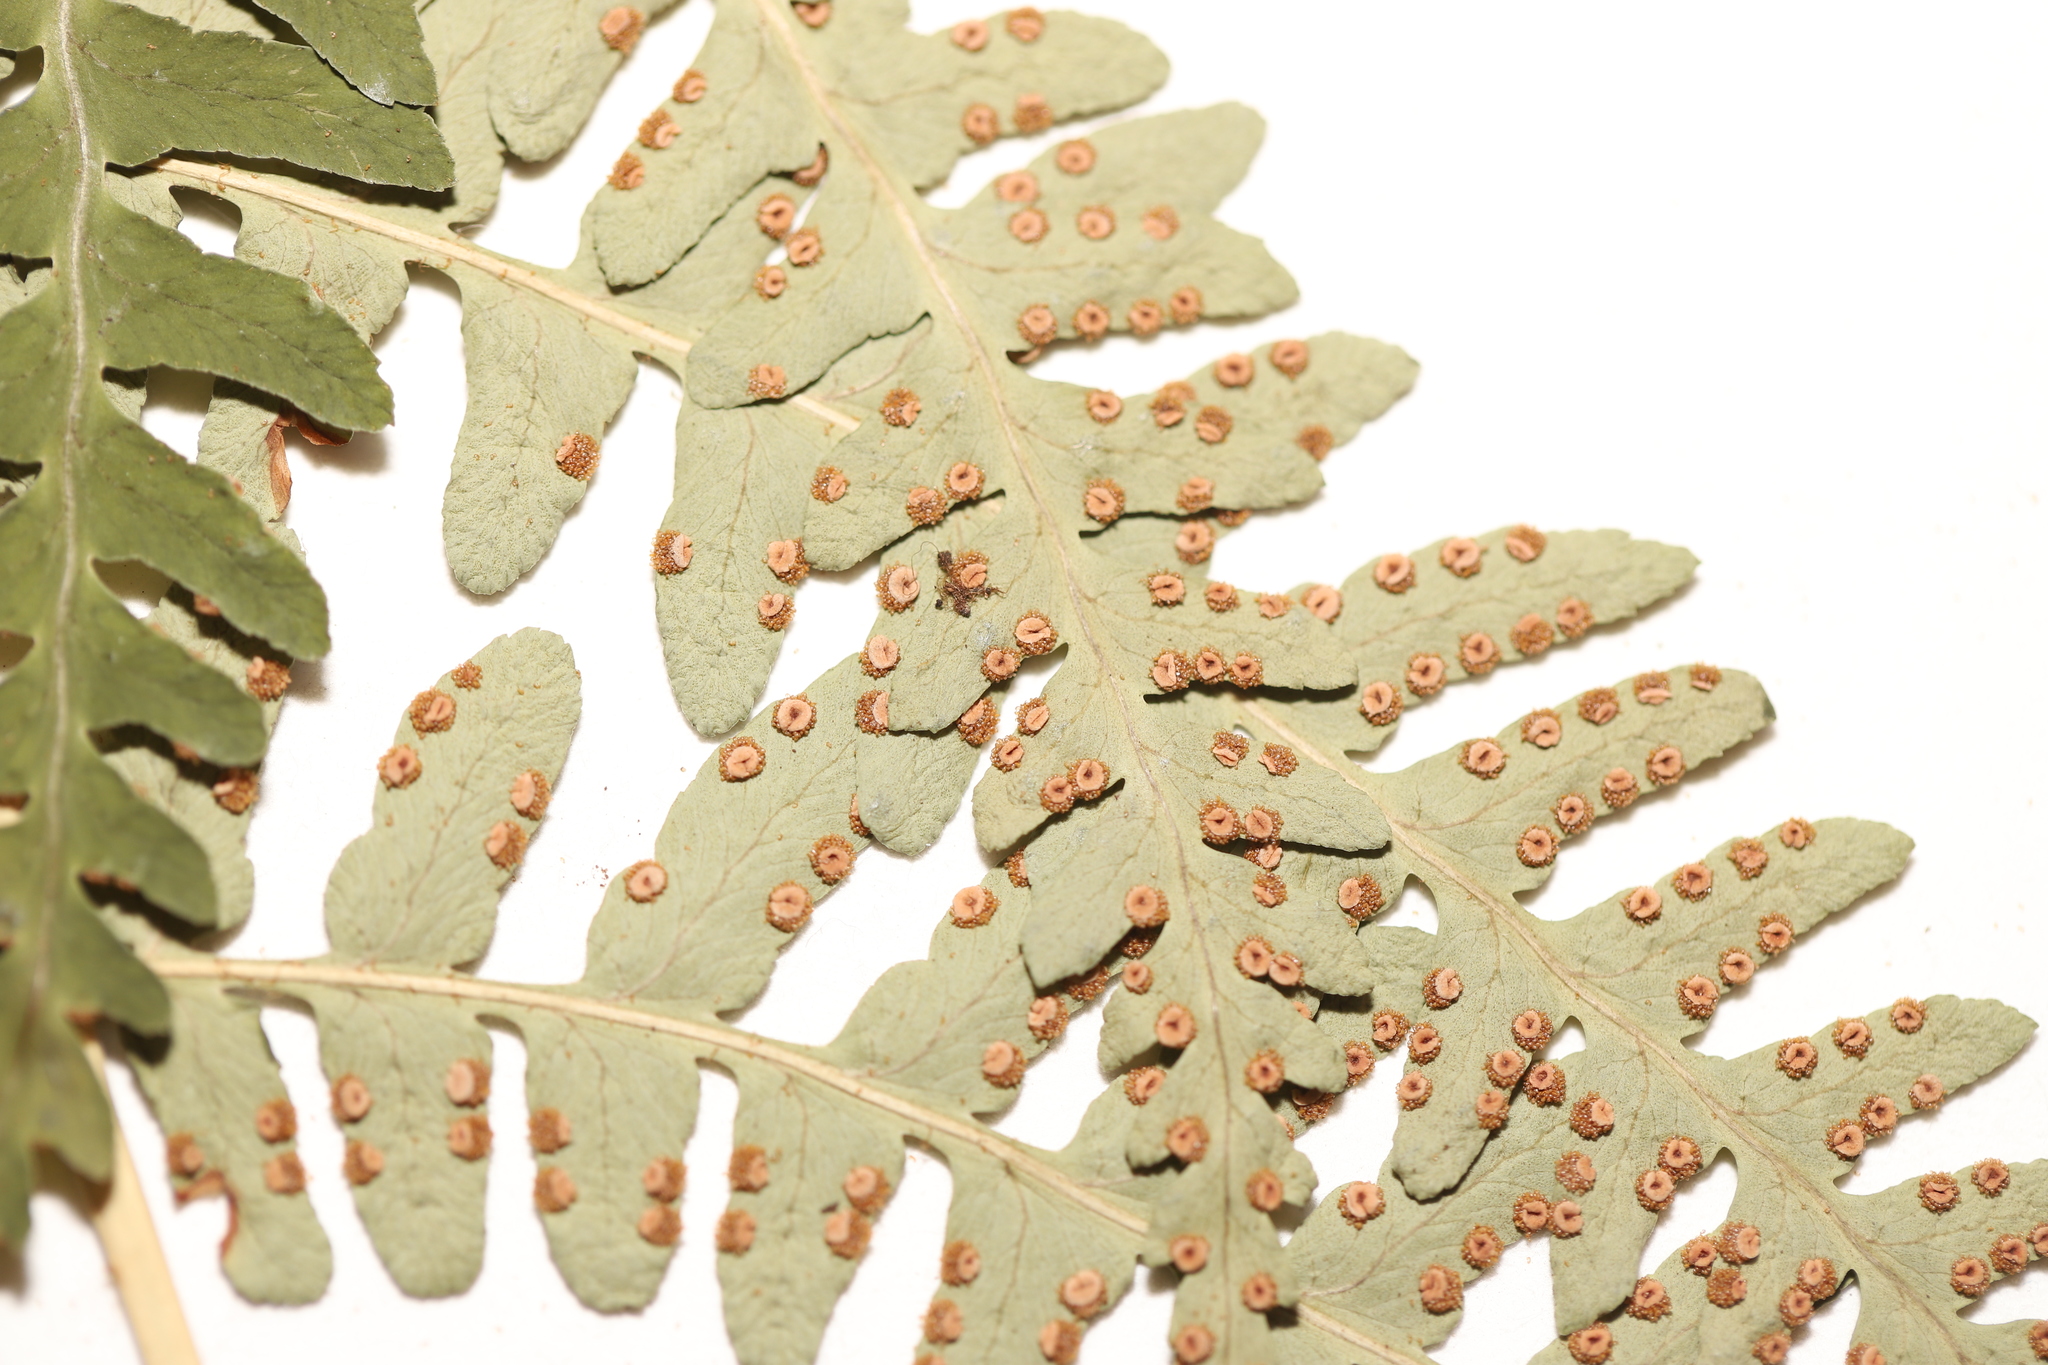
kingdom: Plantae
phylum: Tracheophyta
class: Polypodiopsida
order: Polypodiales
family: Dryopteridaceae
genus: Dryopteris
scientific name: Dryopteris marginalis
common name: Marginal wood fern
